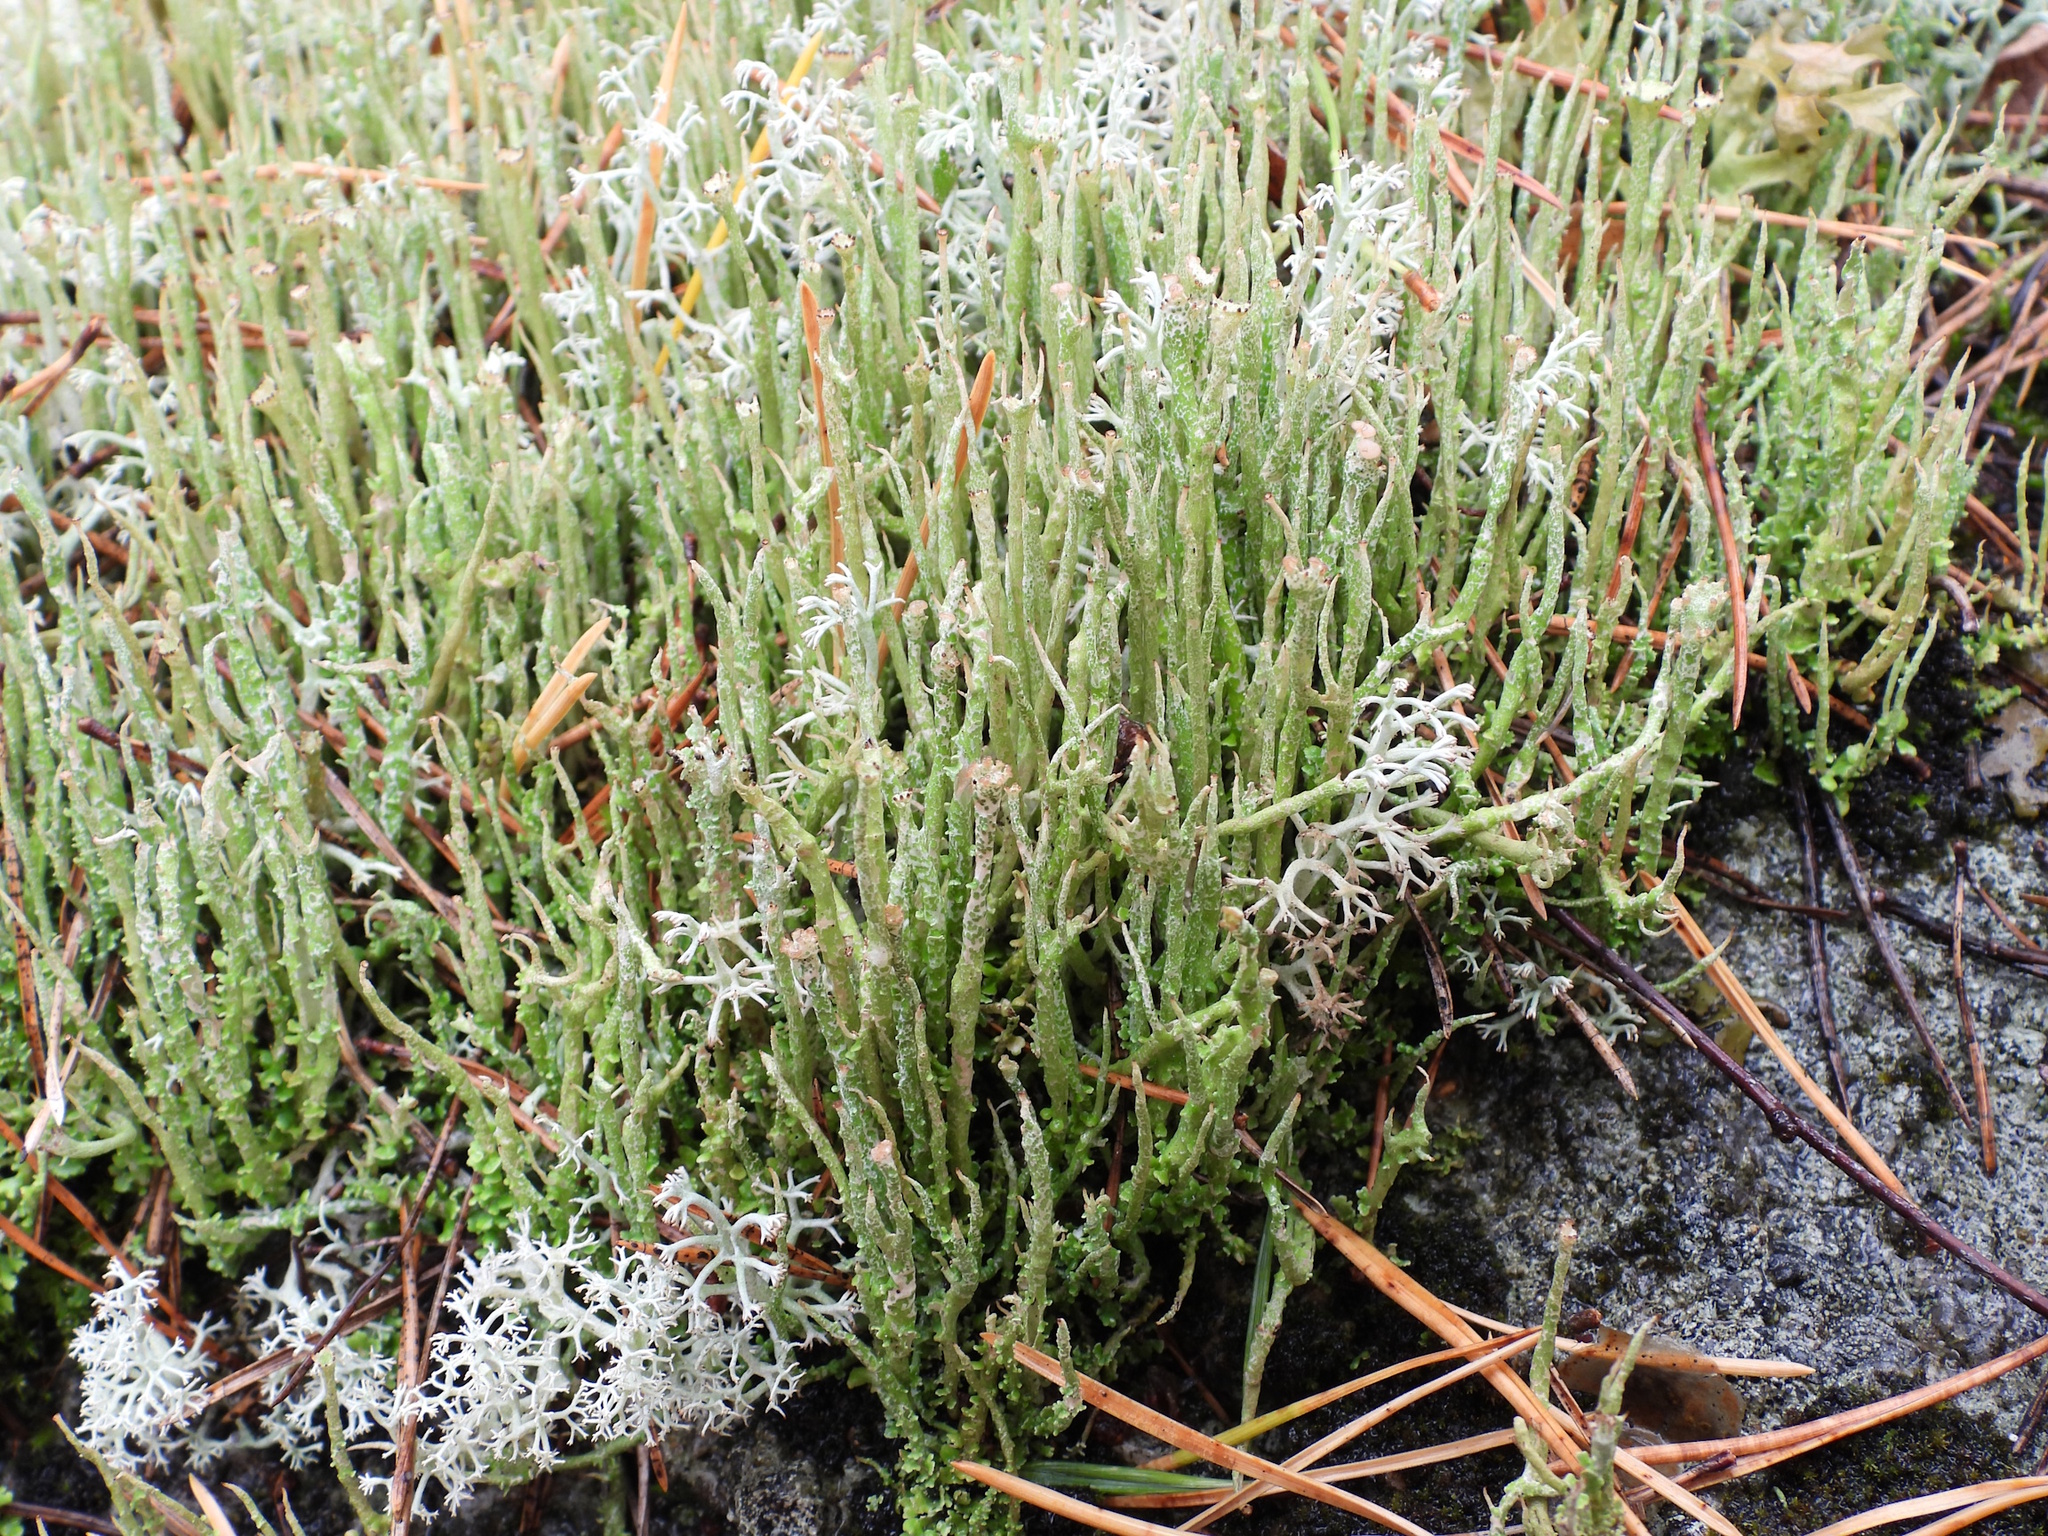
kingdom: Fungi
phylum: Ascomycota
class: Lecanoromycetes
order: Lecanorales
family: Cladoniaceae
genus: Cladonia
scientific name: Cladonia gracilis
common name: Smooth clad lichen
